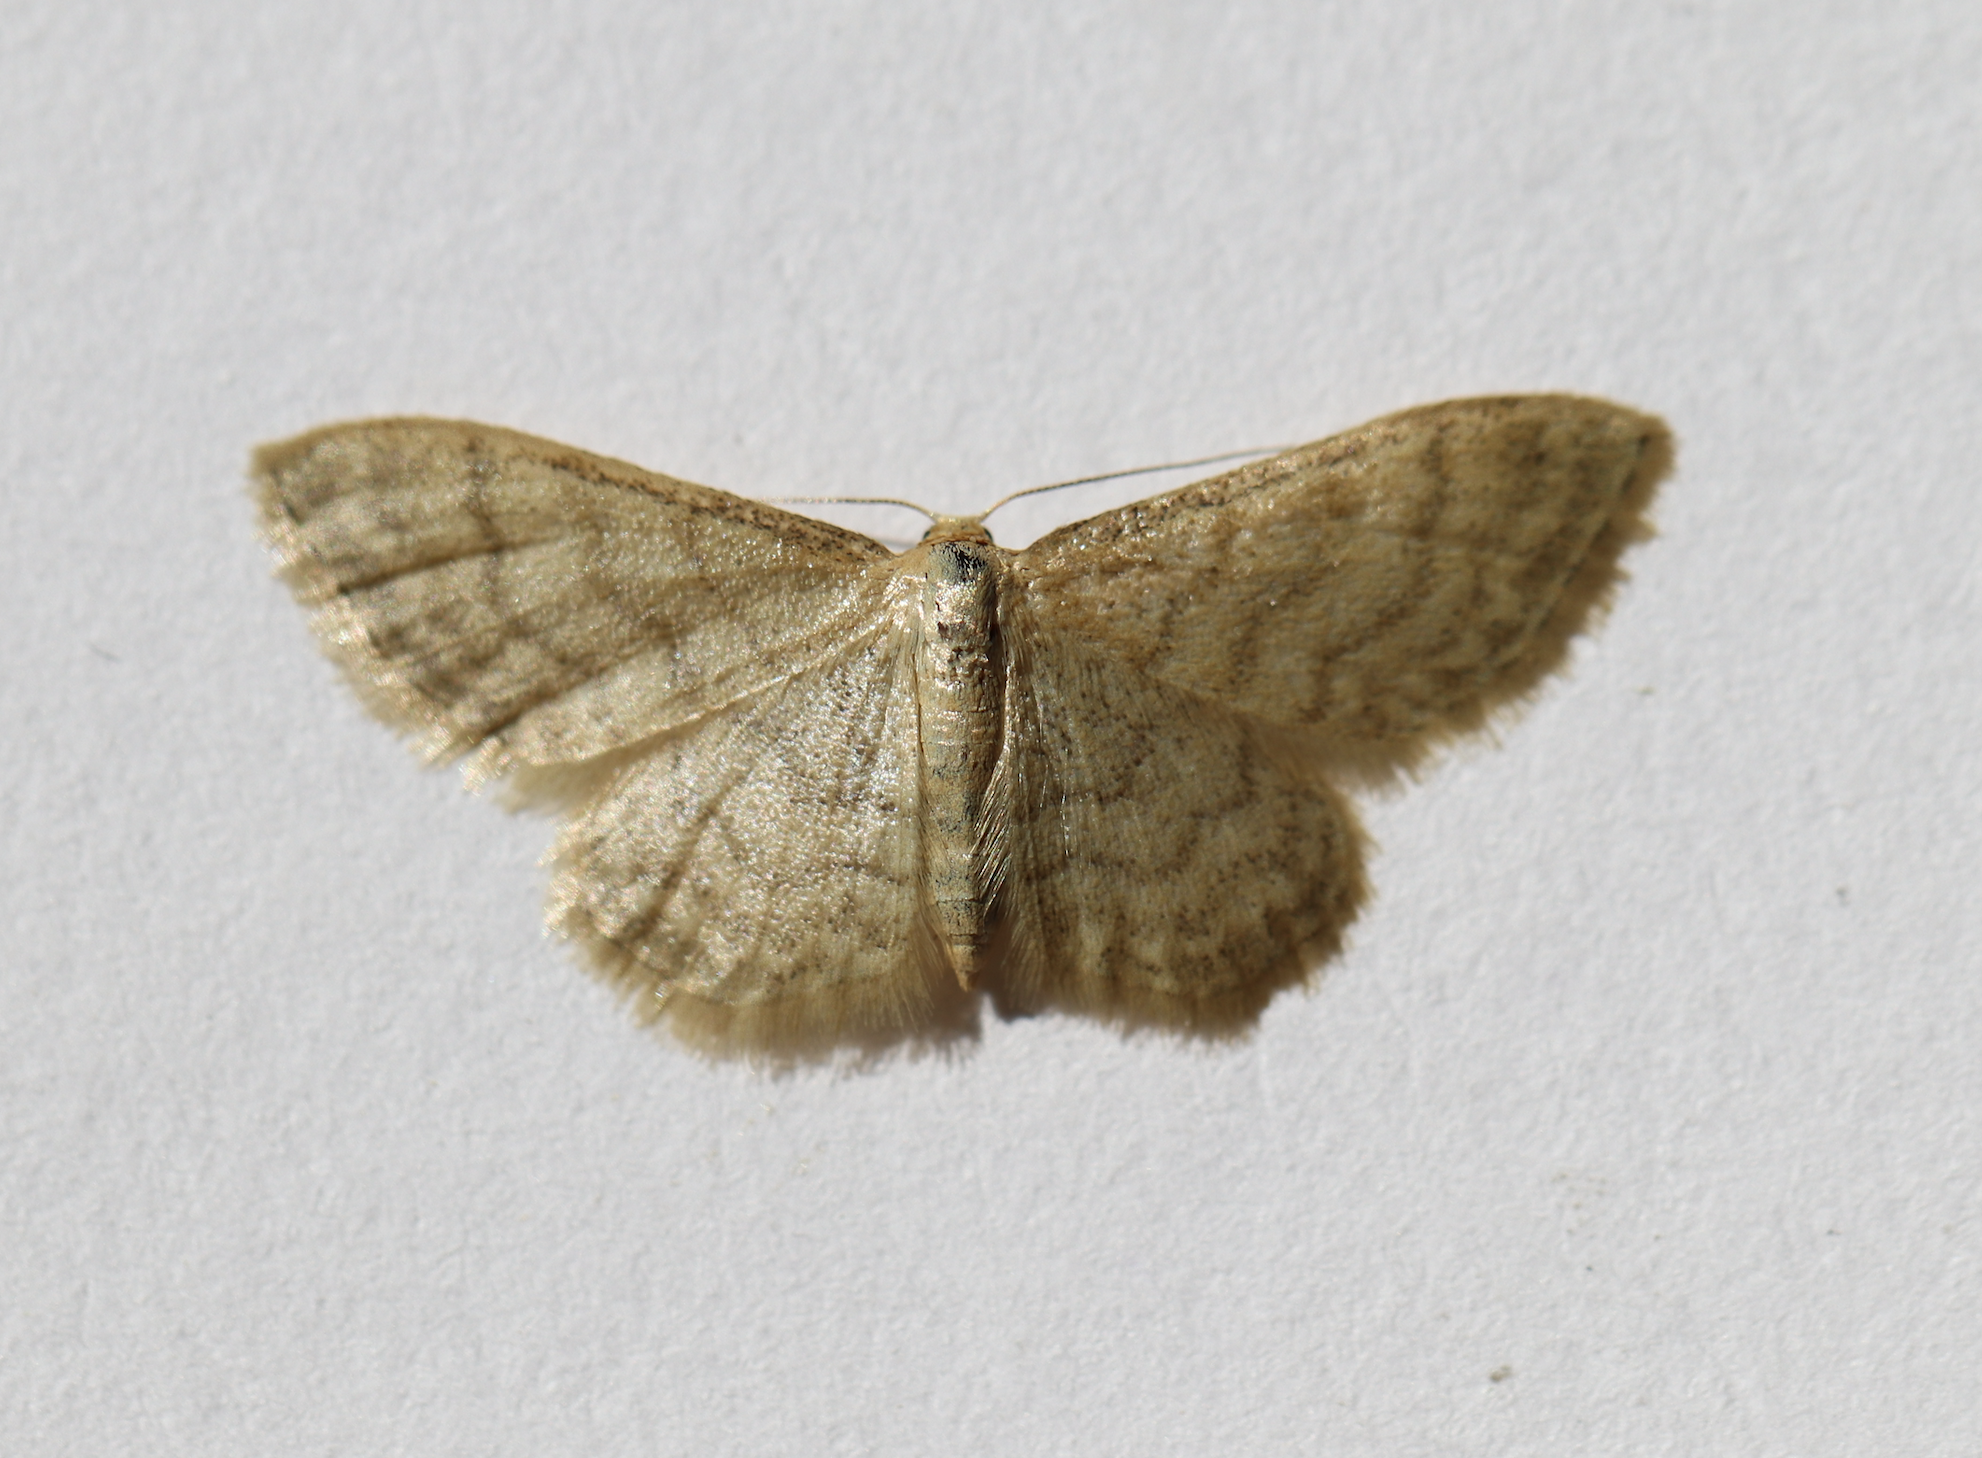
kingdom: Animalia
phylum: Arthropoda
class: Insecta
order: Lepidoptera
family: Geometridae
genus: Idaea
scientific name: Idaea dilutaria
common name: Silky wave
